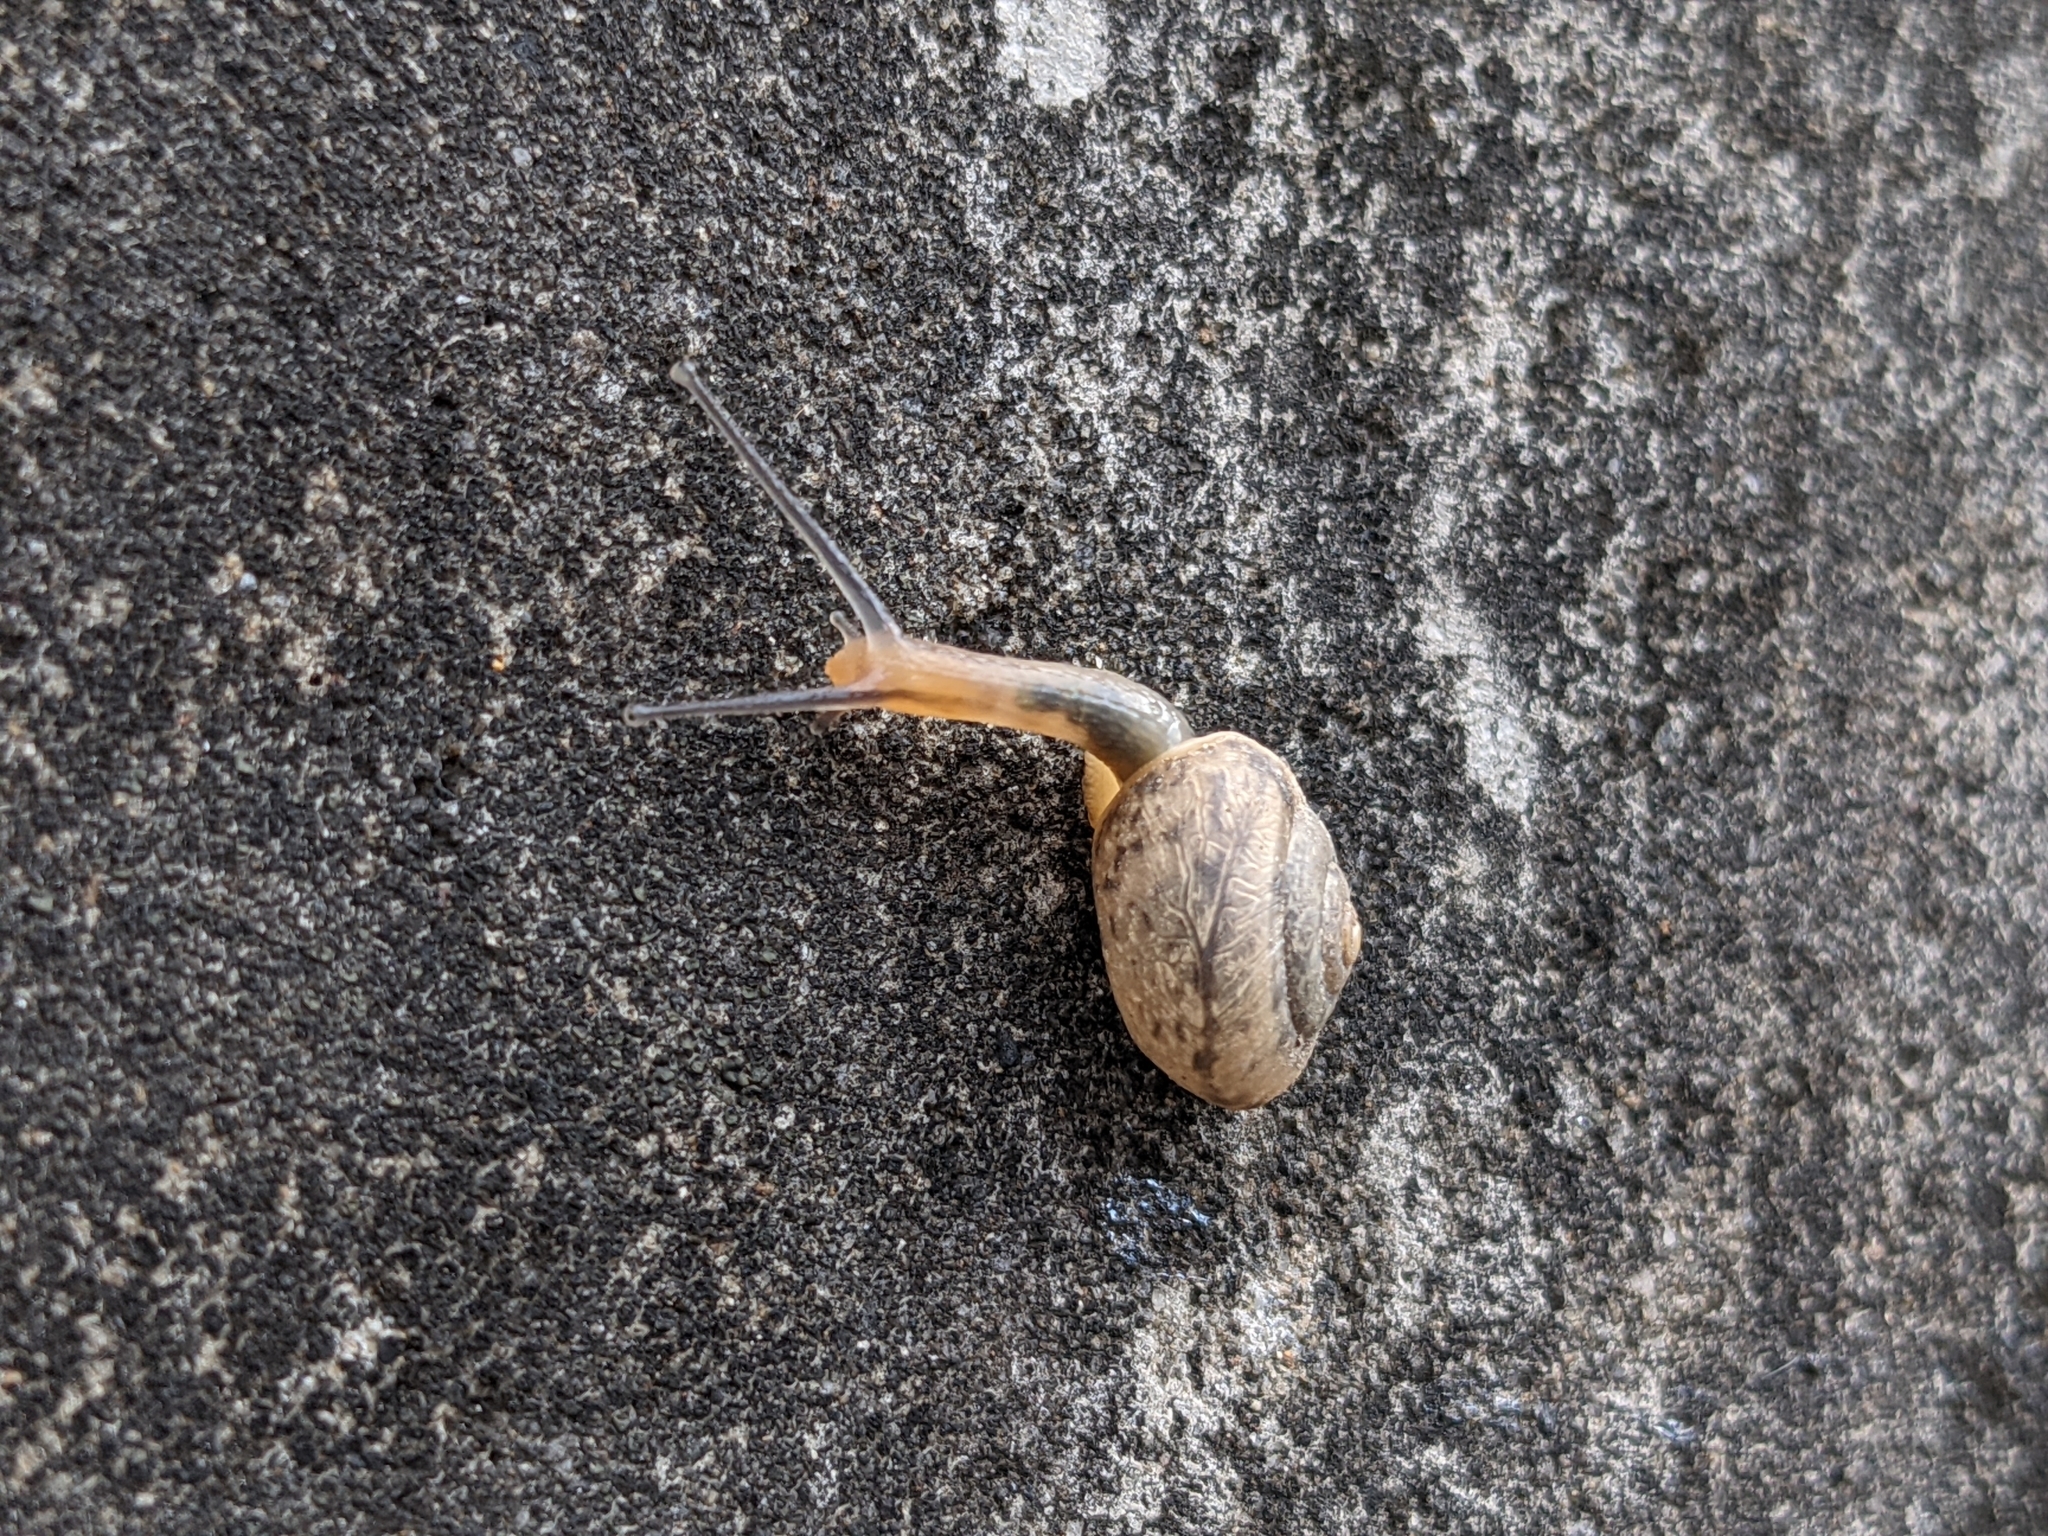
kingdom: Animalia
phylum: Mollusca
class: Gastropoda
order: Stylommatophora
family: Camaenidae
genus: Bradybaena
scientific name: Bradybaena similaris
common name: Asian trampsnail
